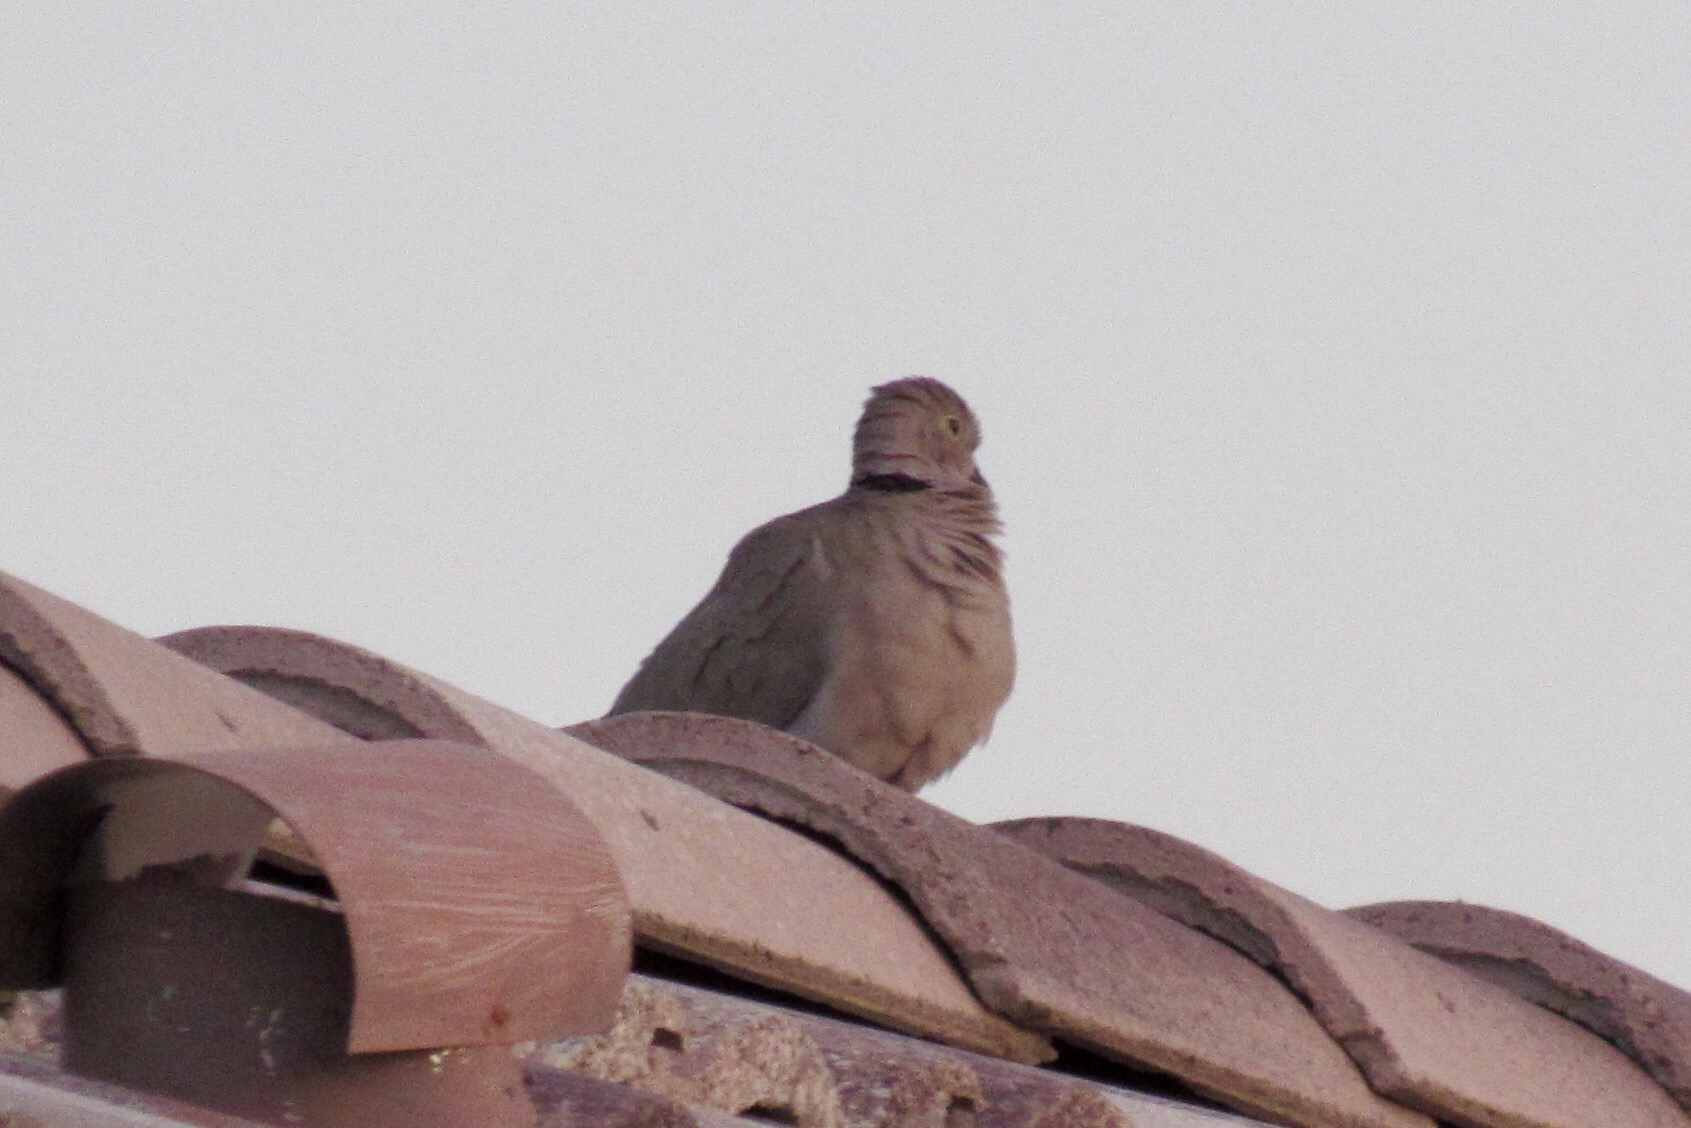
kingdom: Animalia
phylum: Chordata
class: Aves
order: Columbiformes
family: Columbidae
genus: Streptopelia
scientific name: Streptopelia decaocto
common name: Eurasian collared dove
